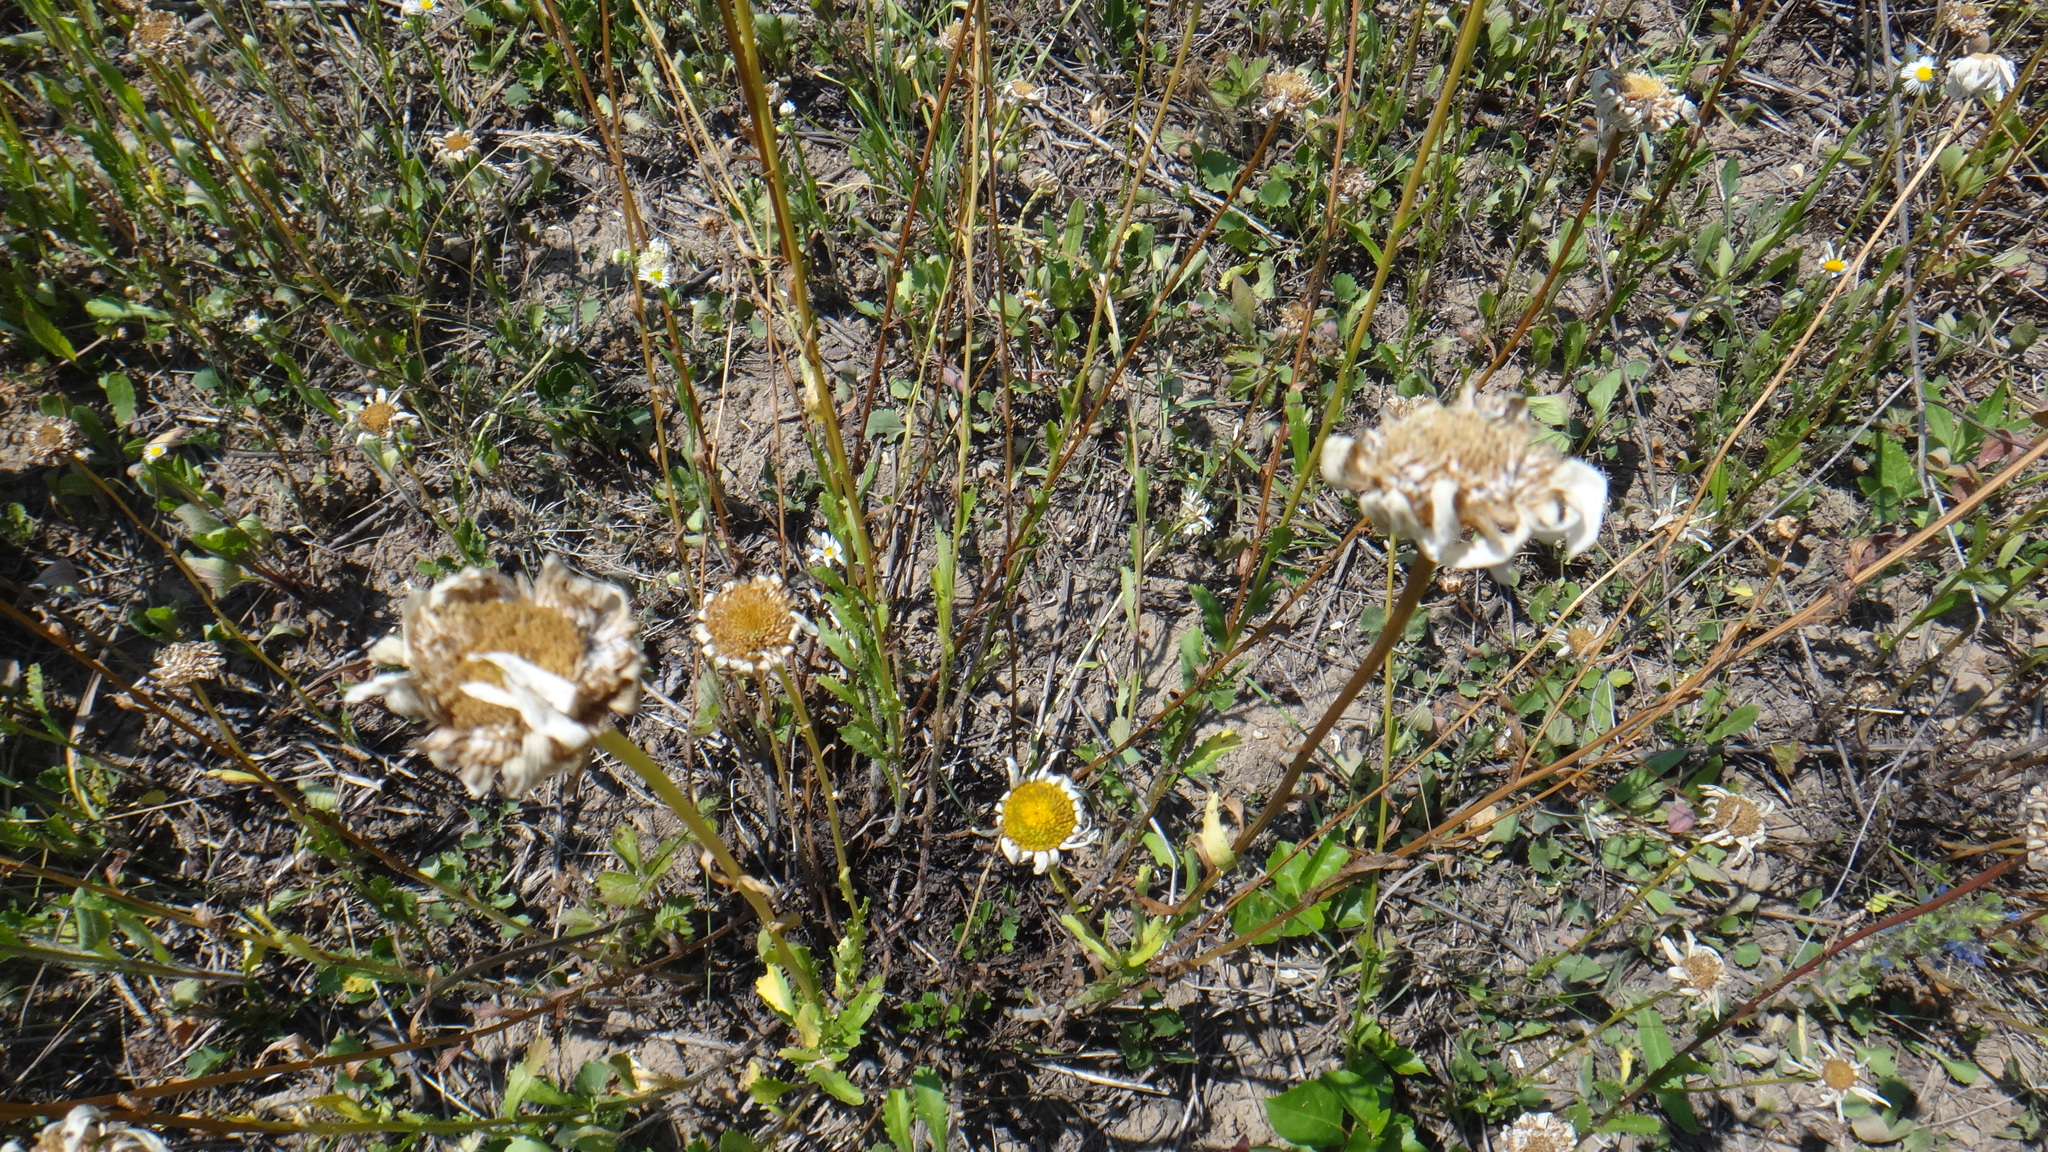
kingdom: Plantae
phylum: Tracheophyta
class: Magnoliopsida
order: Asterales
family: Asteraceae
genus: Leucanthemum
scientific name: Leucanthemum vulgare
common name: Oxeye daisy
